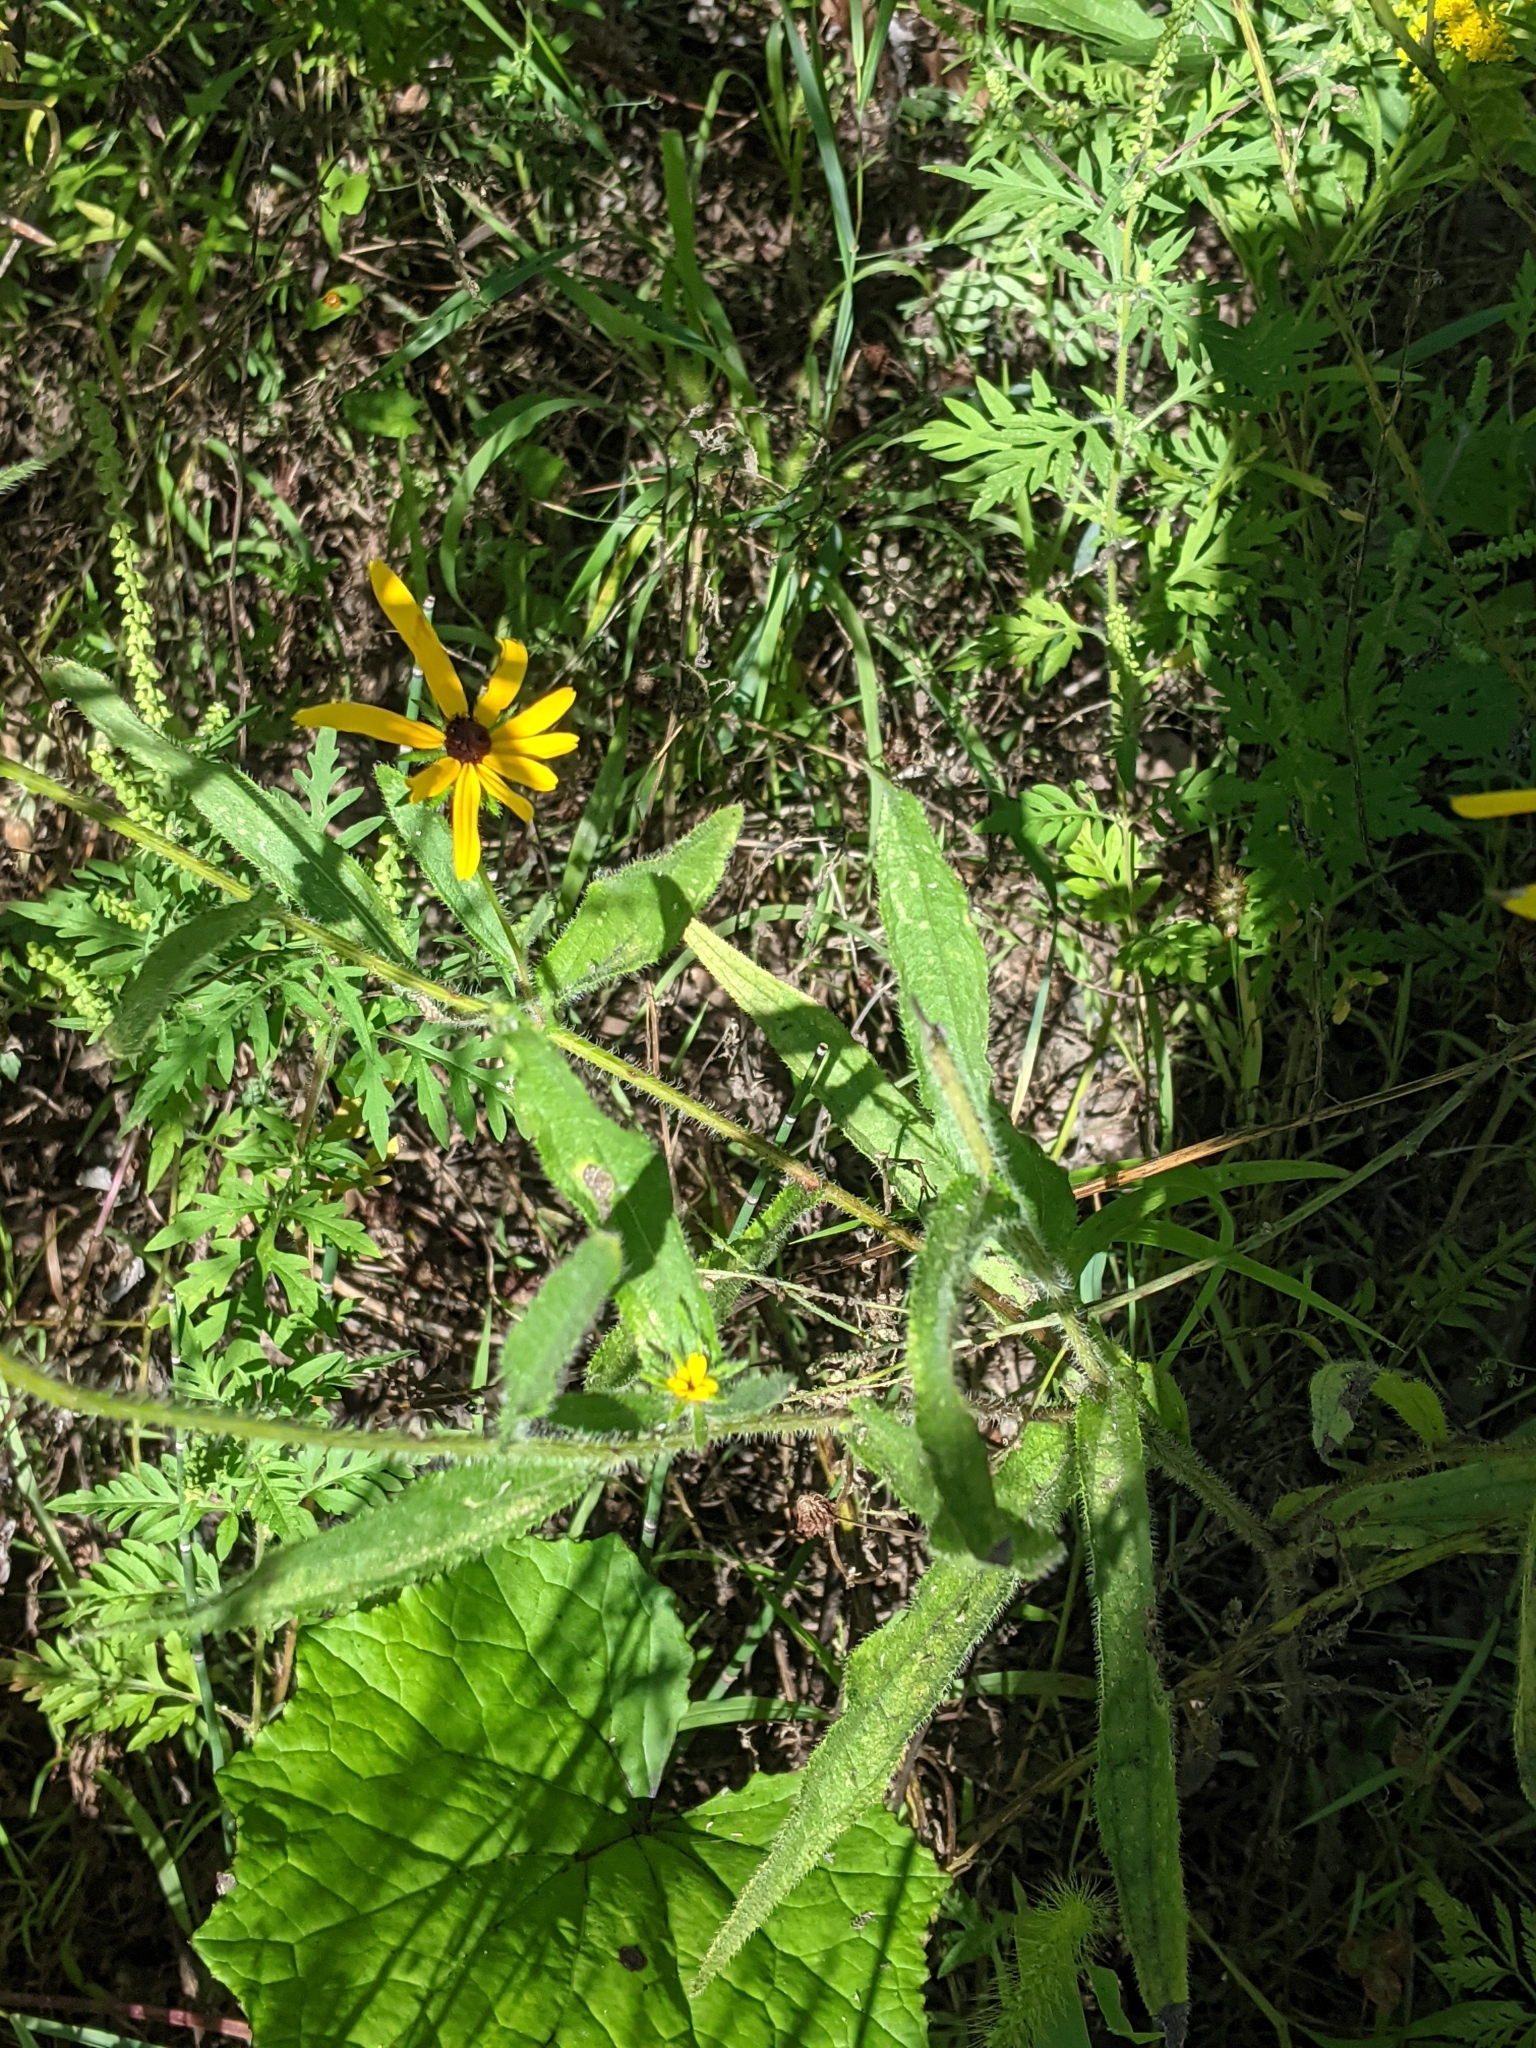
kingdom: Plantae
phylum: Tracheophyta
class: Magnoliopsida
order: Asterales
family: Asteraceae
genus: Rudbeckia
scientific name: Rudbeckia hirta
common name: Black-eyed-susan
